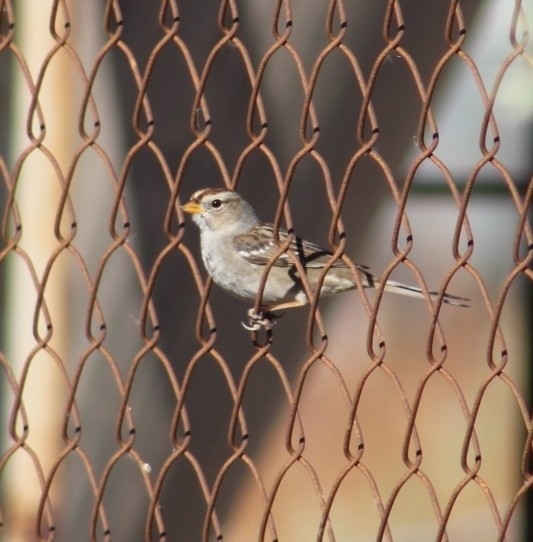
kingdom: Animalia
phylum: Chordata
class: Aves
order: Passeriformes
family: Passerellidae
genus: Zonotrichia
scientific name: Zonotrichia leucophrys
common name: White-crowned sparrow
